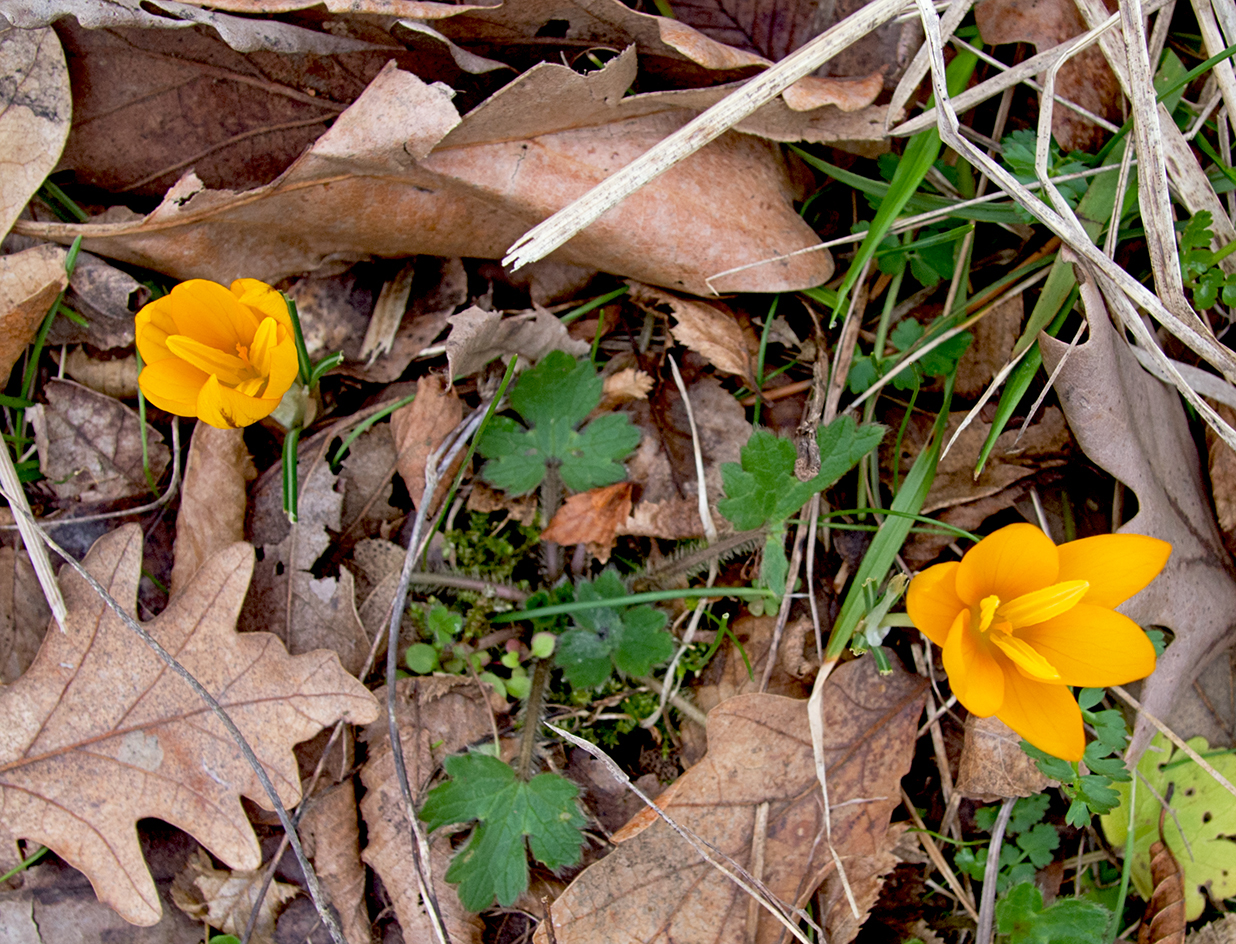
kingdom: Plantae
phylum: Tracheophyta
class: Liliopsida
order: Asparagales
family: Iridaceae
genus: Crocus
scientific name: Crocus flavus
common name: Yellow crocus
